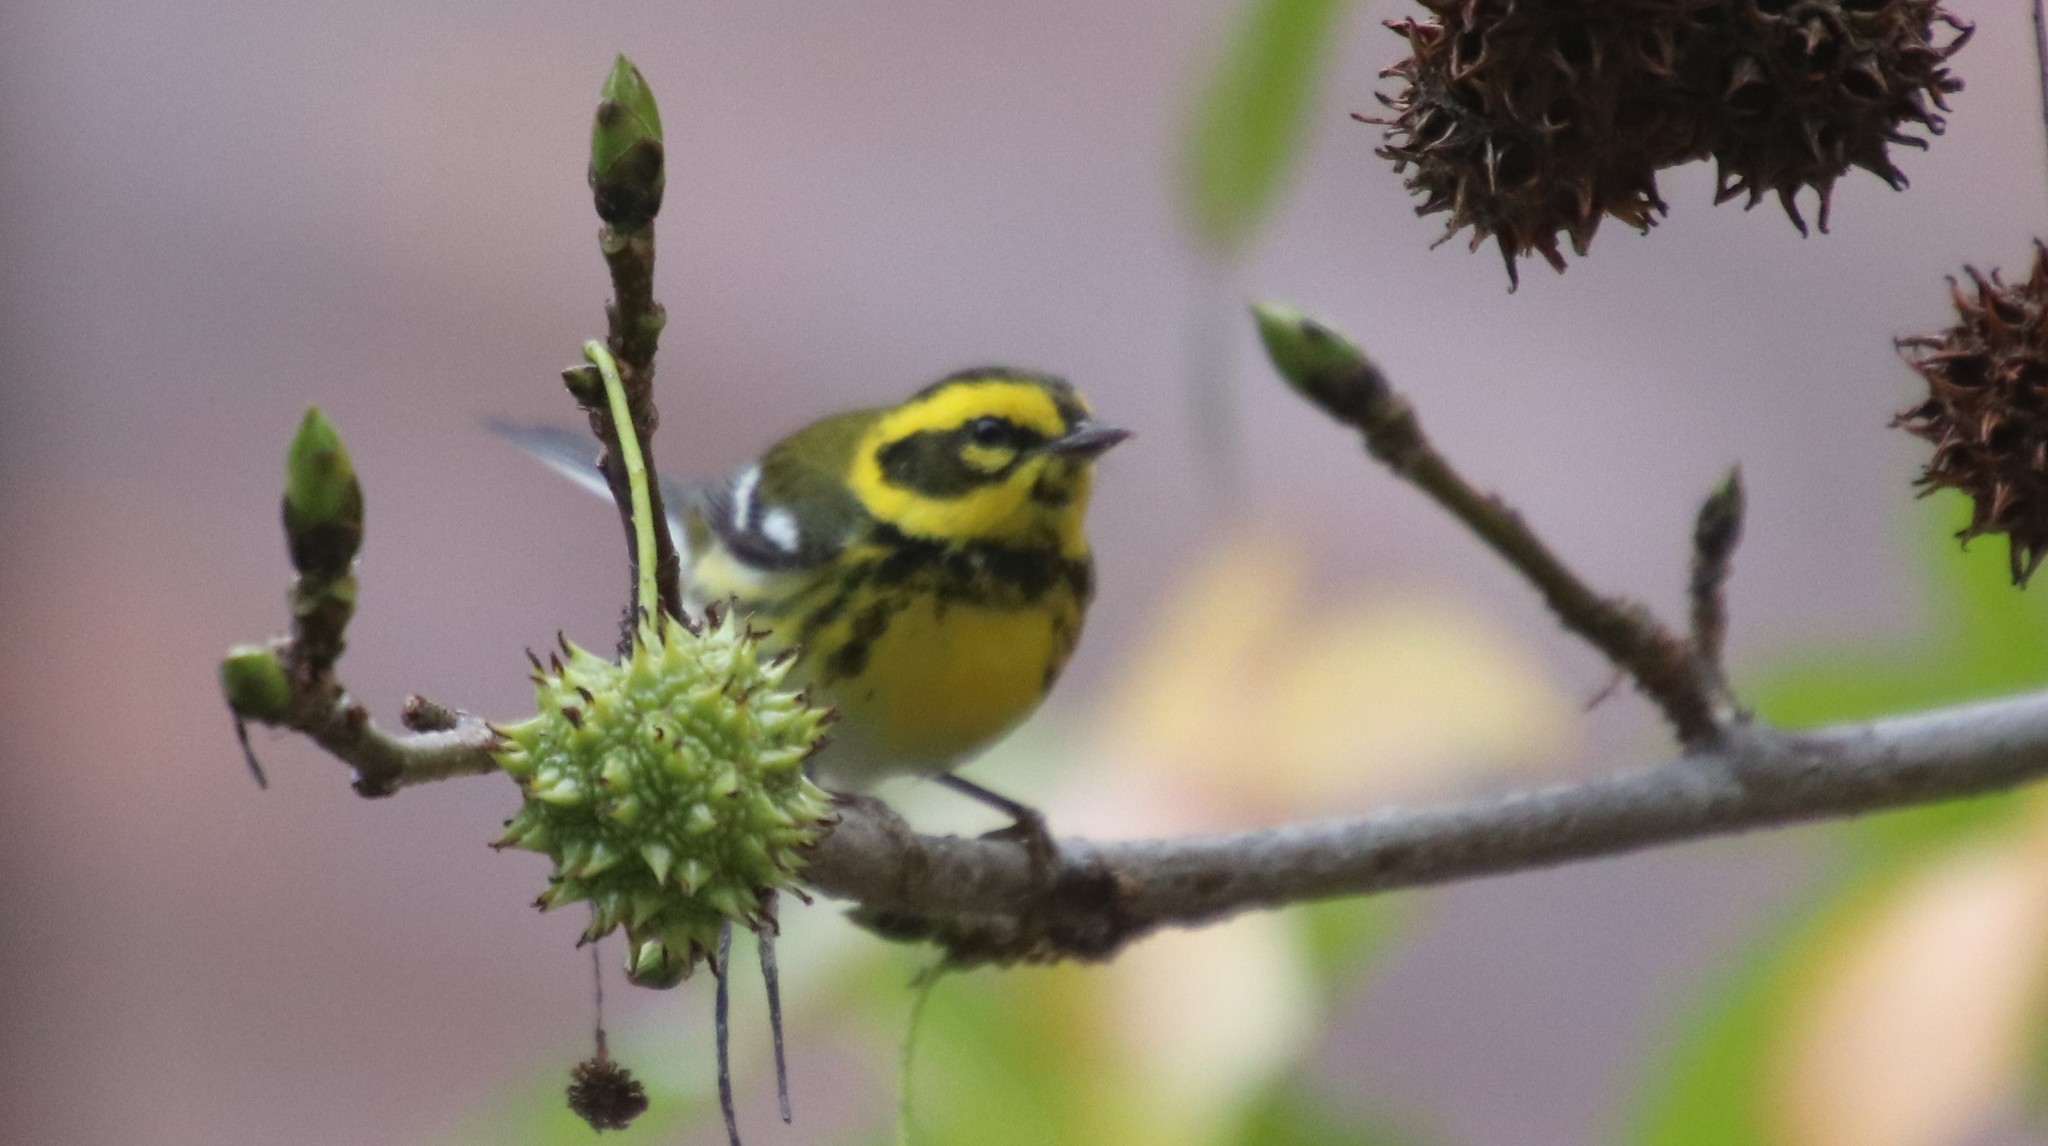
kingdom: Animalia
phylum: Chordata
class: Aves
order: Passeriformes
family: Parulidae
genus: Setophaga
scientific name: Setophaga townsendi
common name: Townsend's warbler
